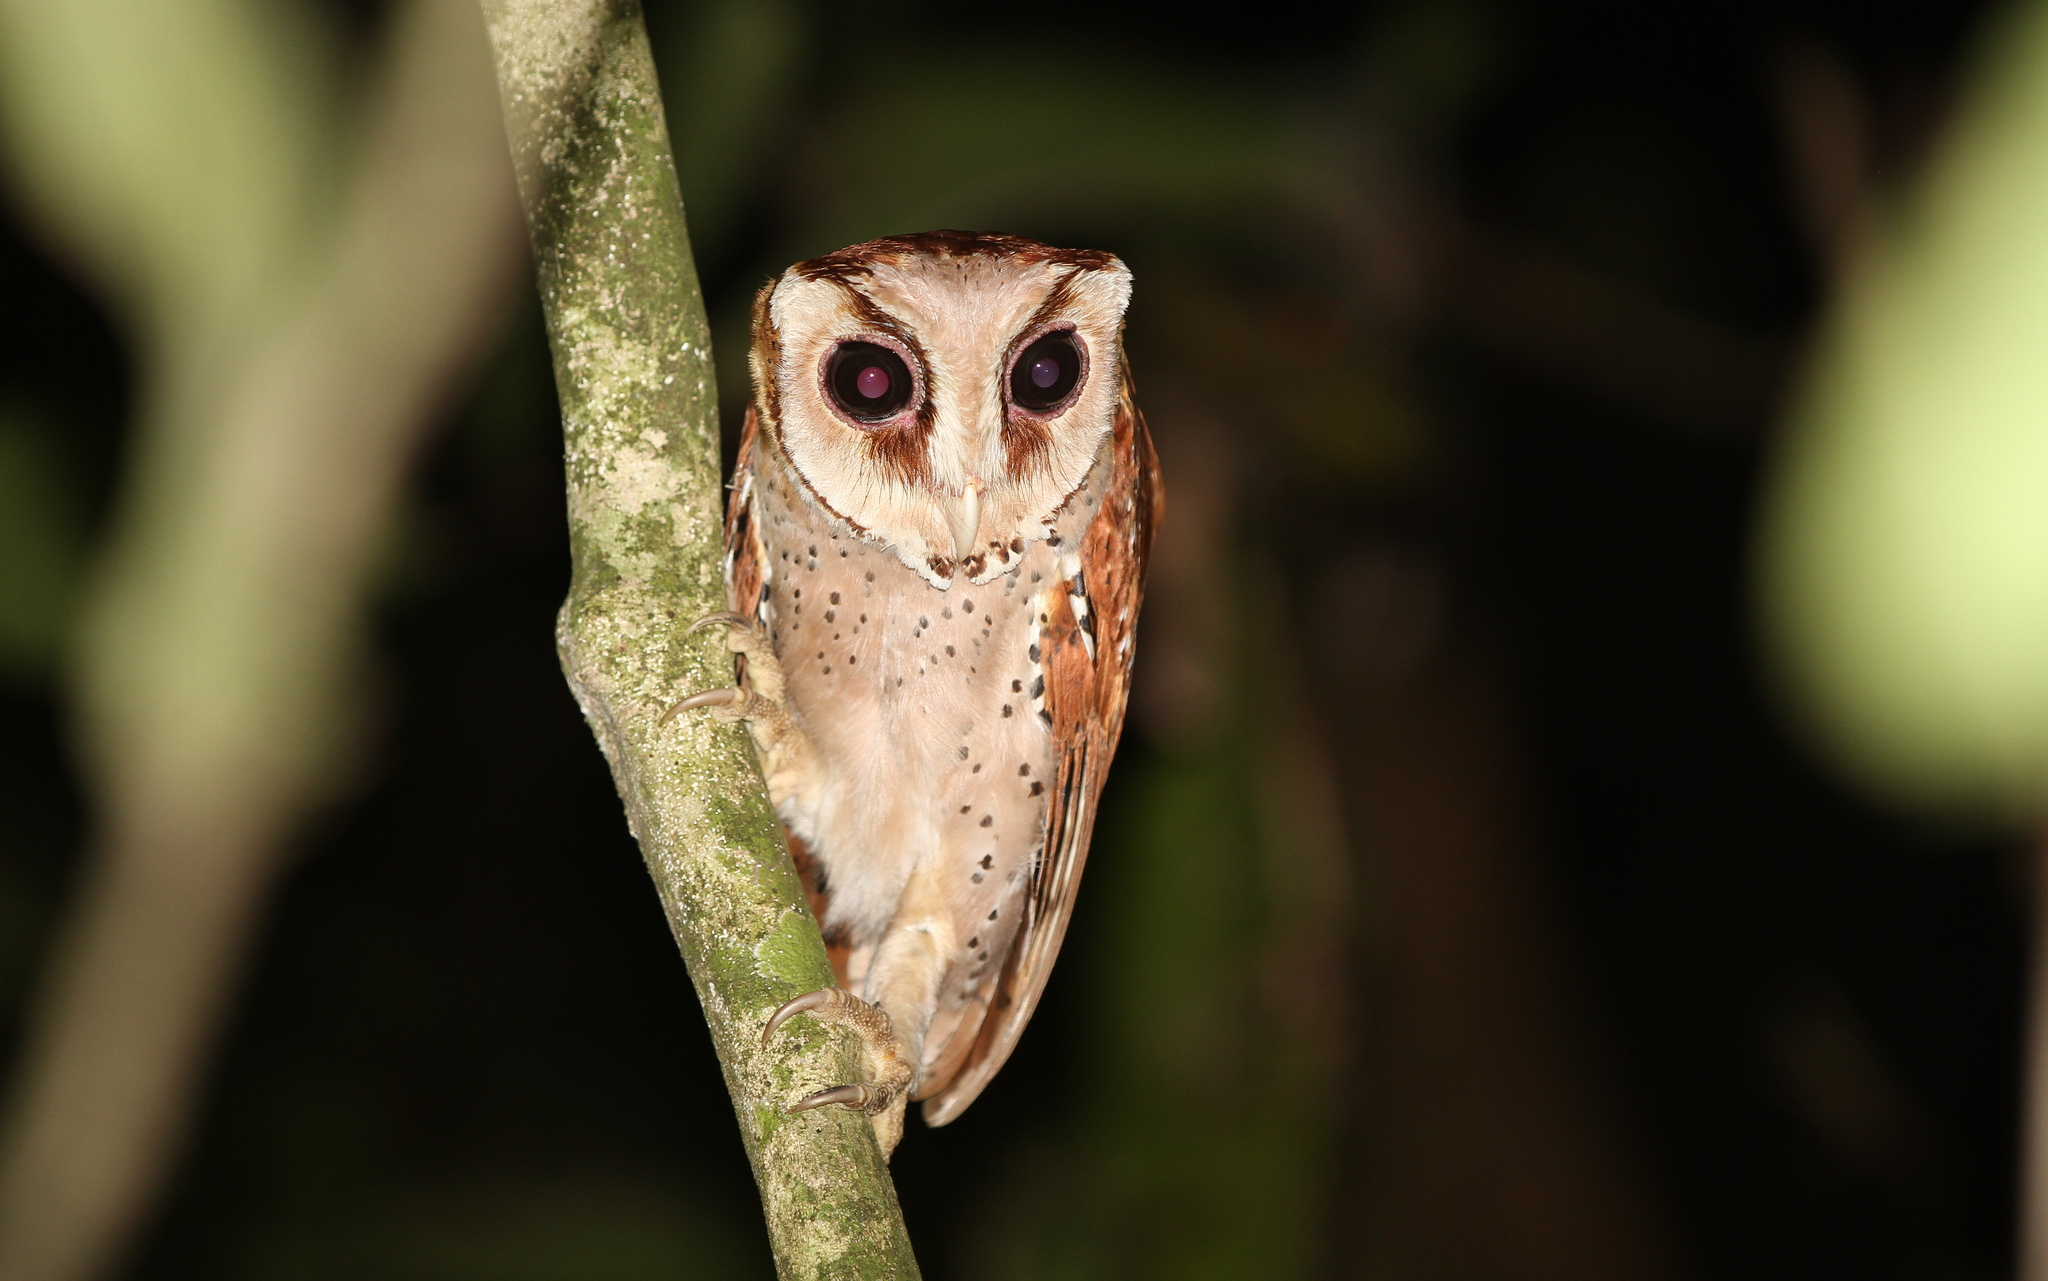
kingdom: Animalia
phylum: Chordata
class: Aves
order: Strigiformes
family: Tytonidae
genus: Phodilus
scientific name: Phodilus badius
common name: Oriental bay-owl
